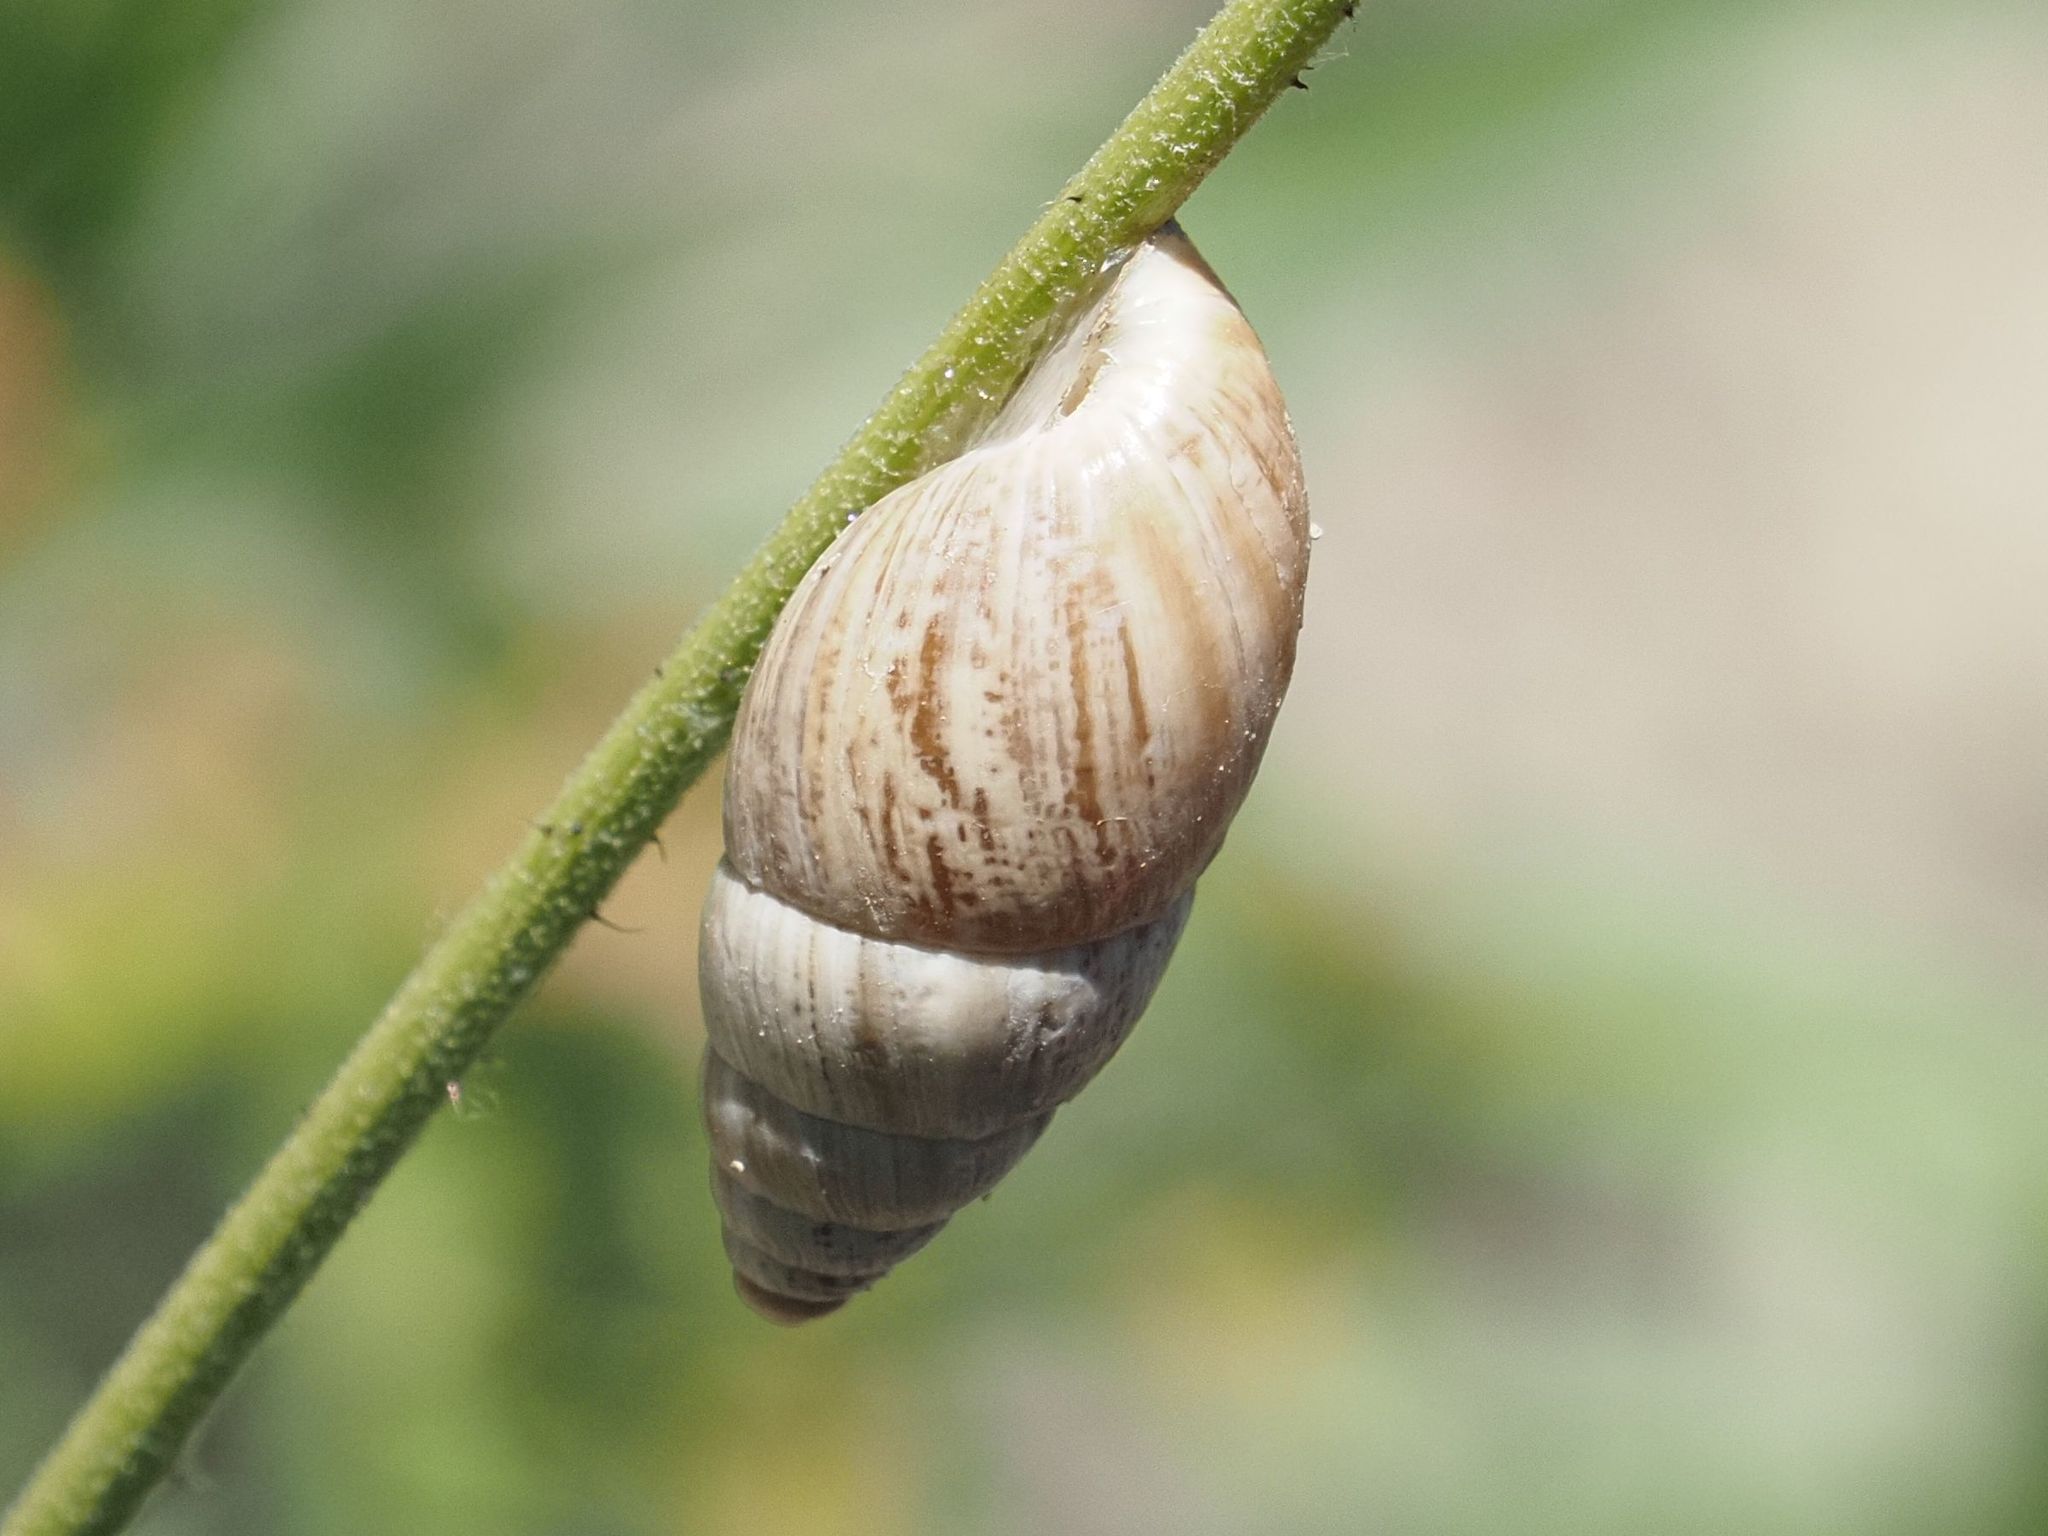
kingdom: Animalia
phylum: Mollusca
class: Gastropoda
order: Stylommatophora
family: Enidae
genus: Zebrina
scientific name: Zebrina detrita
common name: Large bulin
